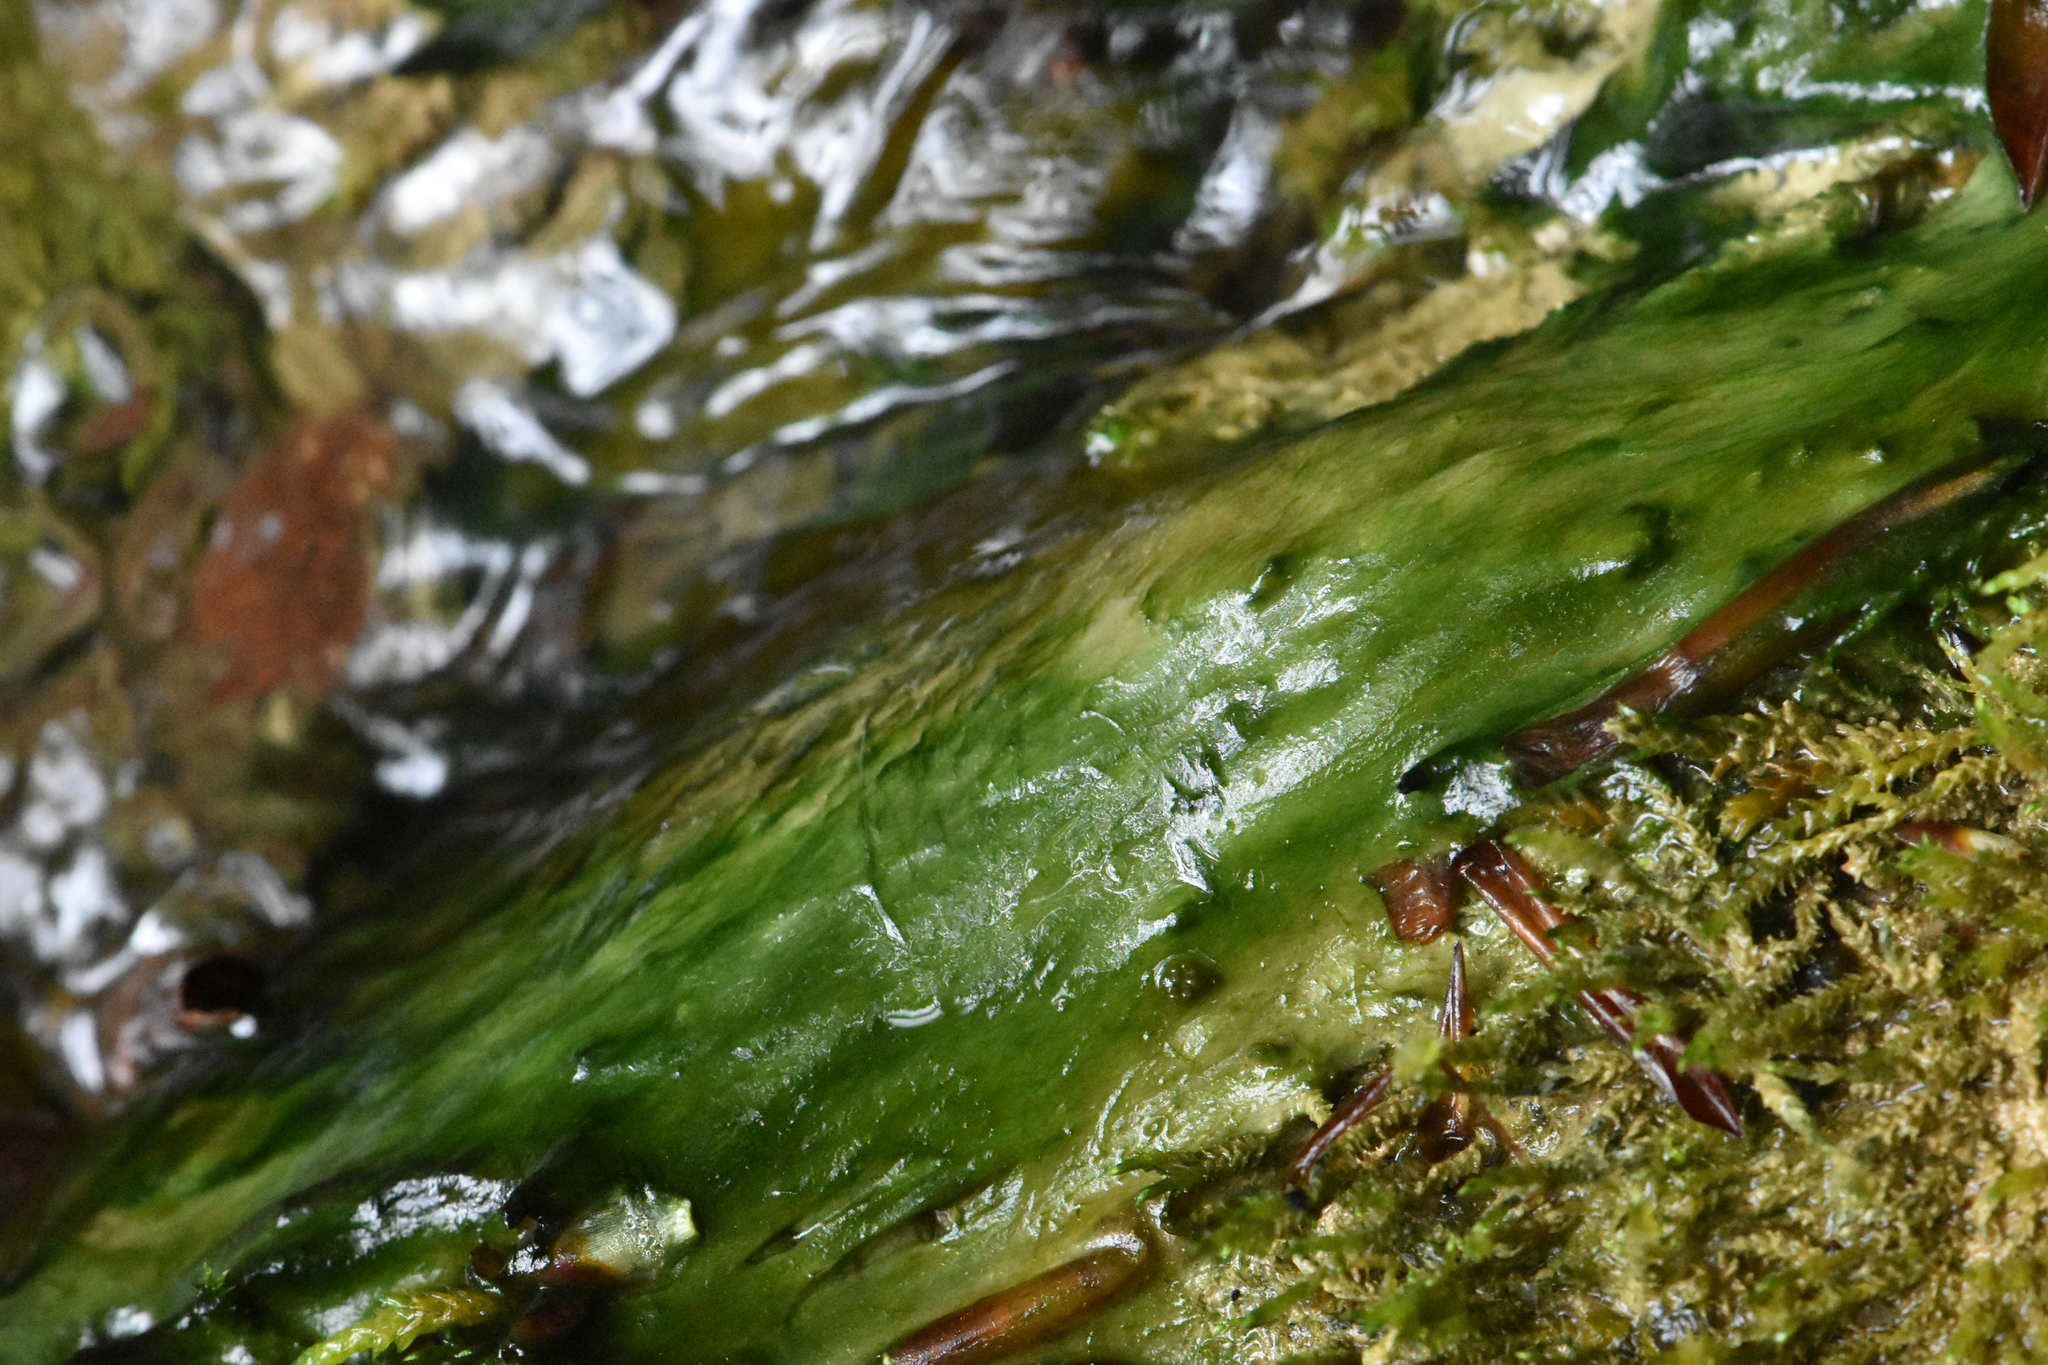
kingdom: Chromista
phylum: Ochrophyta
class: Xanthophyceae
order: Vaucheriales
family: Vaucheriaceae
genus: Vaucheria
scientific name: Vaucheria
